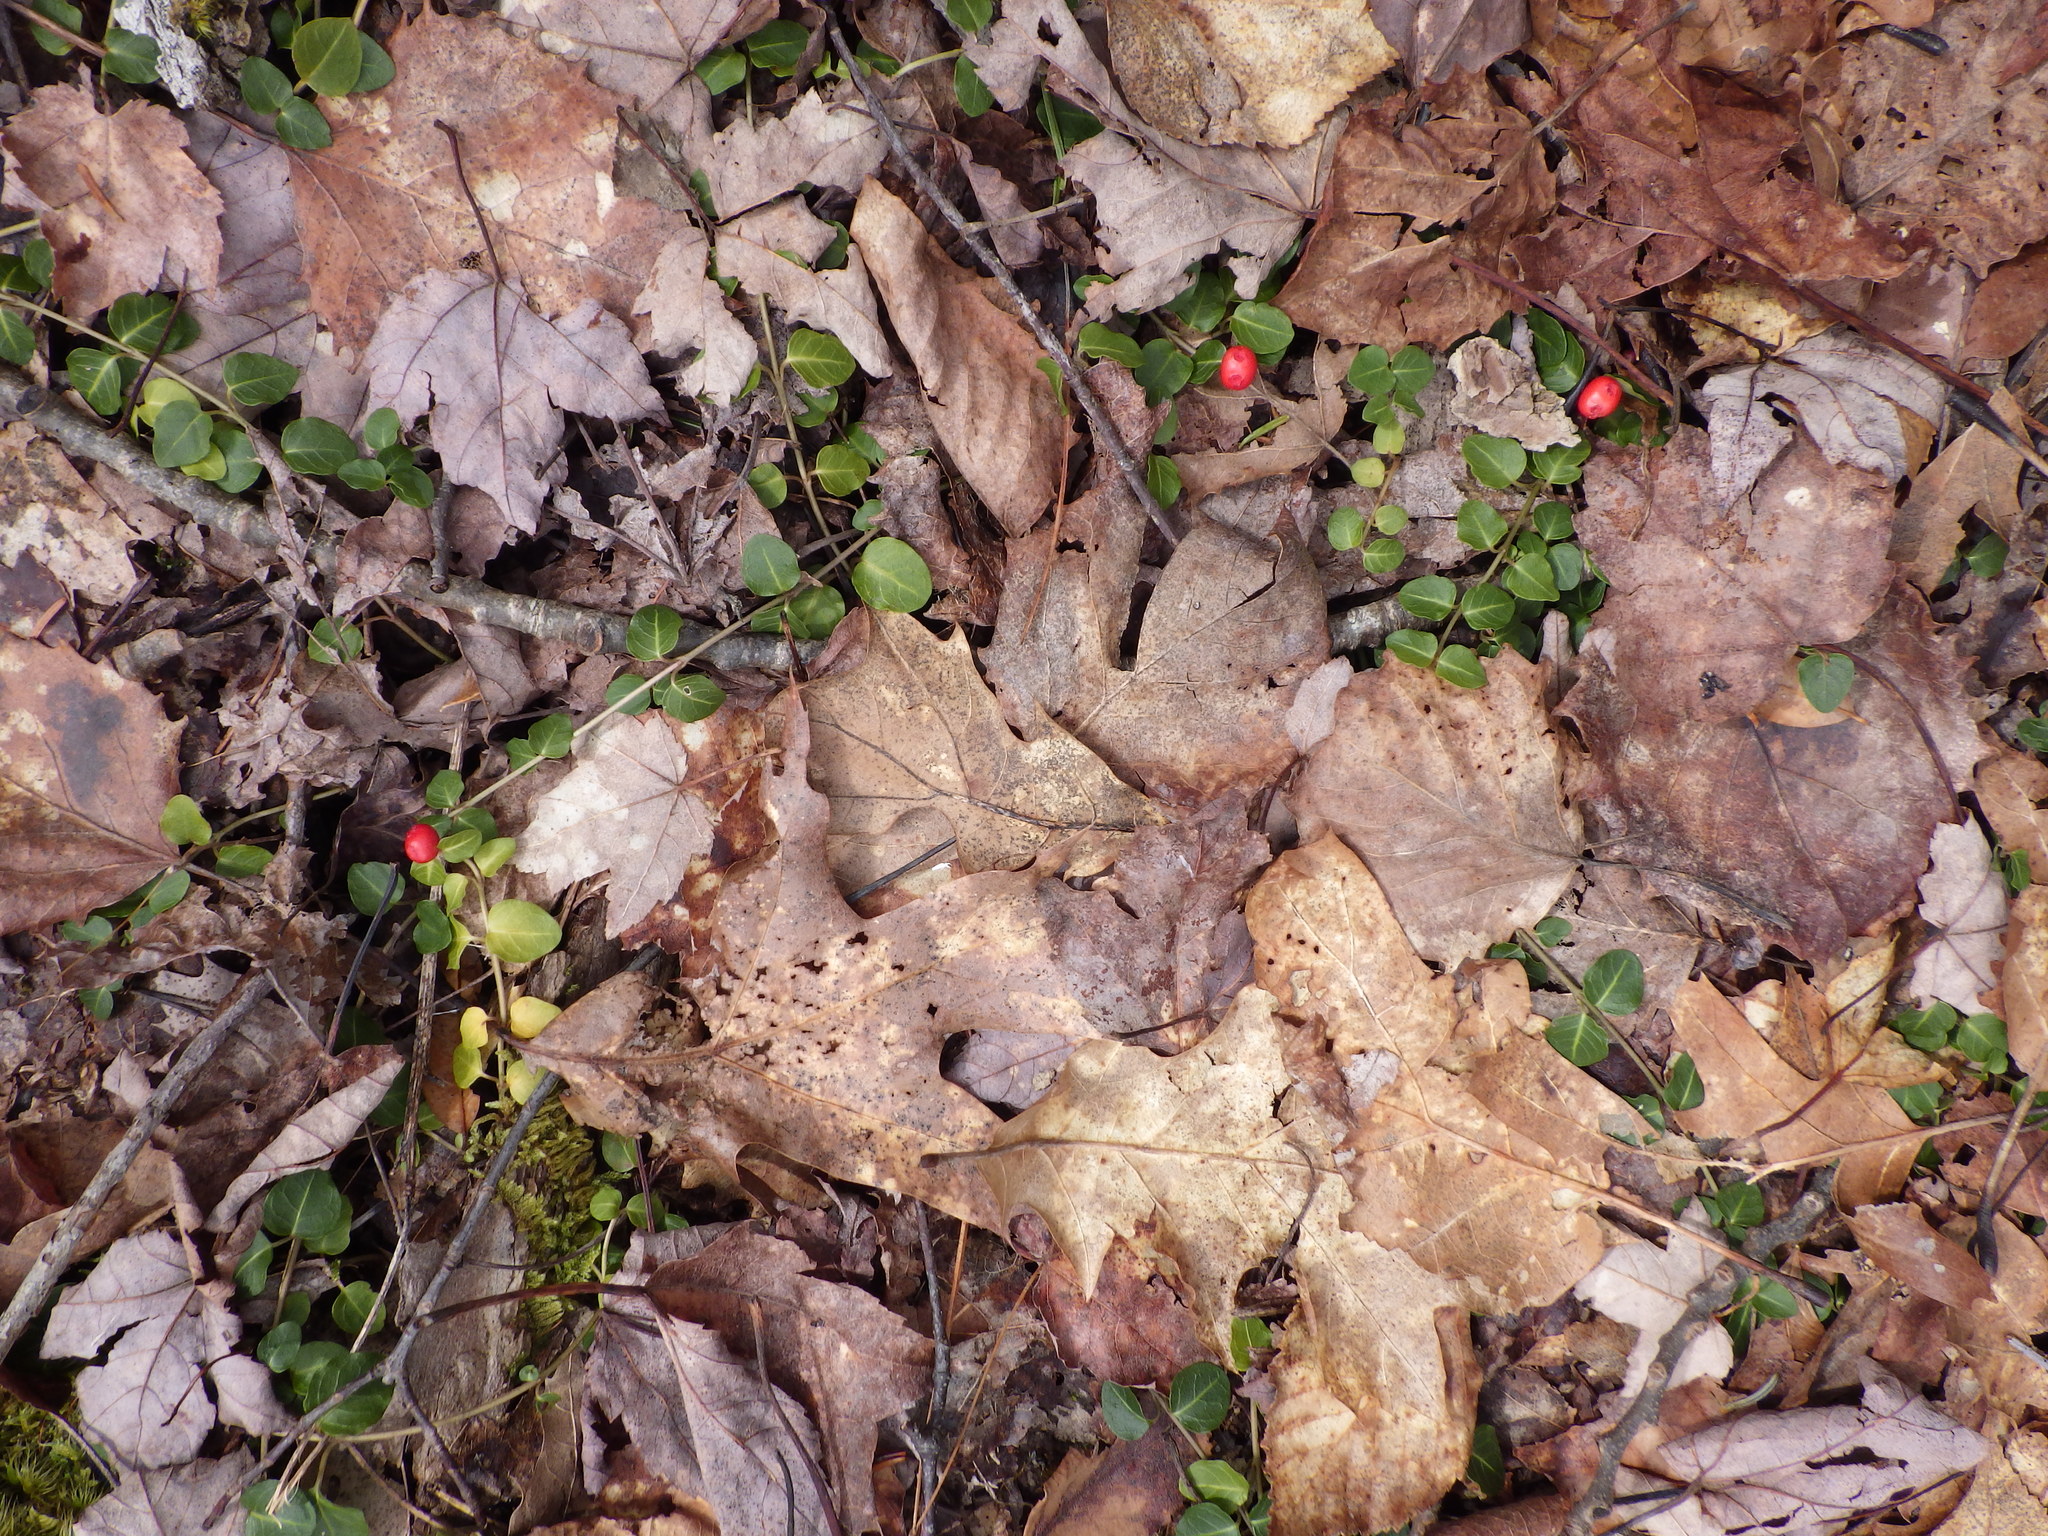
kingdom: Plantae
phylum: Tracheophyta
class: Magnoliopsida
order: Gentianales
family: Rubiaceae
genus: Mitchella
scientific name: Mitchella repens
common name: Partridge-berry
